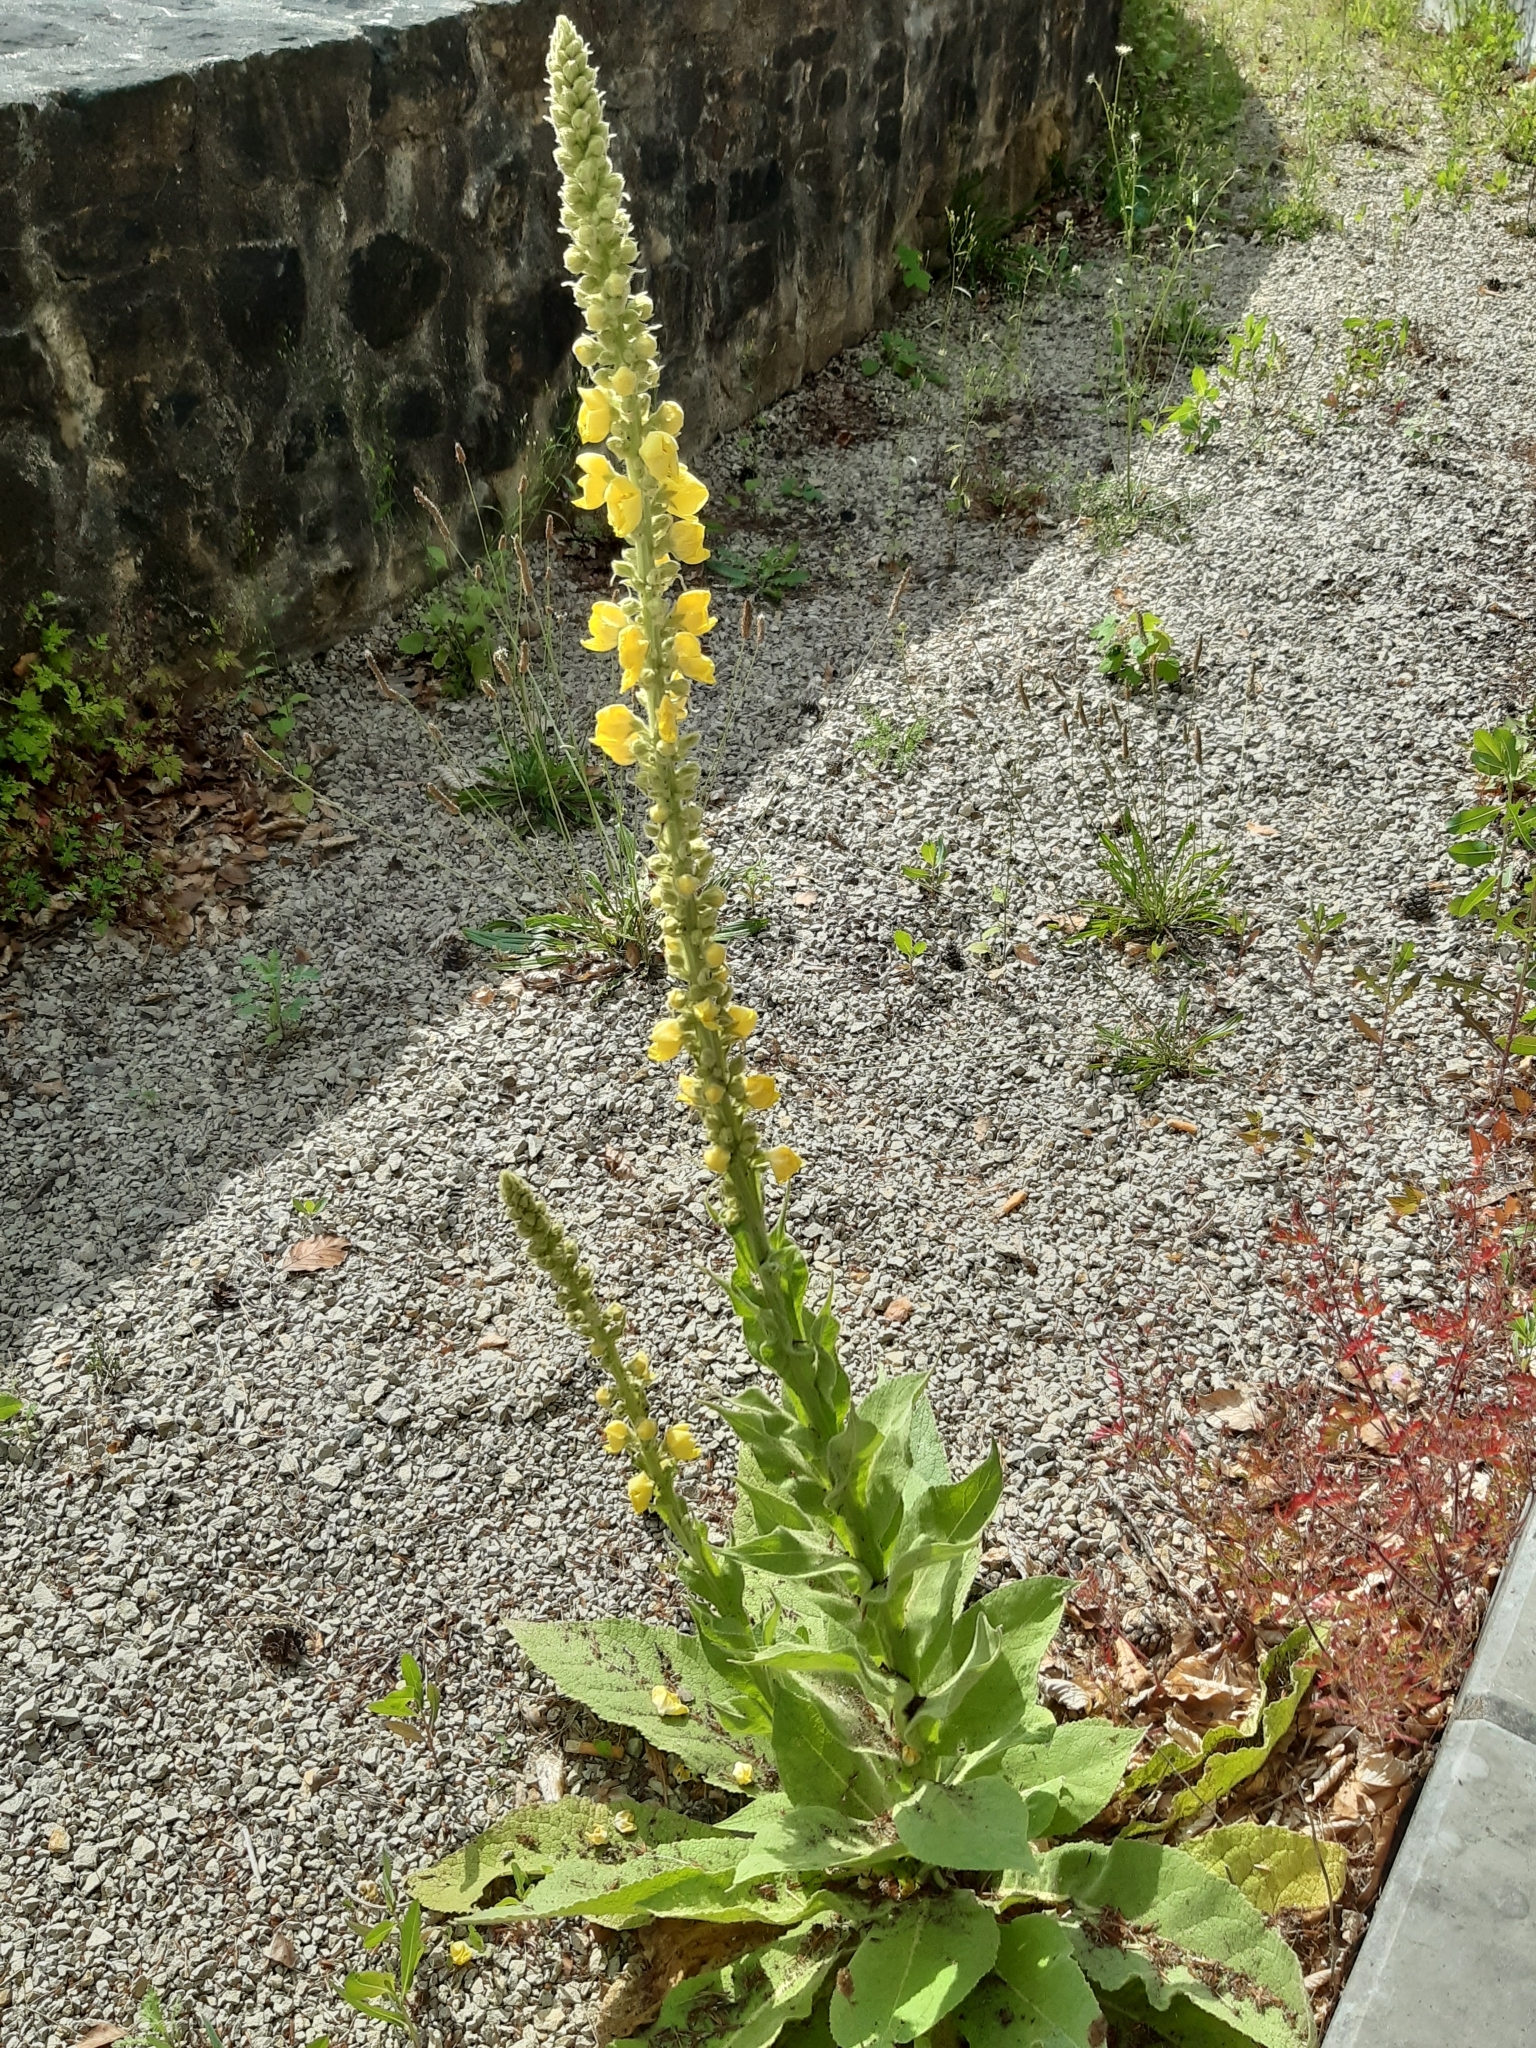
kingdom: Plantae
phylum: Tracheophyta
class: Magnoliopsida
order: Lamiales
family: Scrophulariaceae
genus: Verbascum
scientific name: Verbascum densiflorum
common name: Dense-flowered mullein
